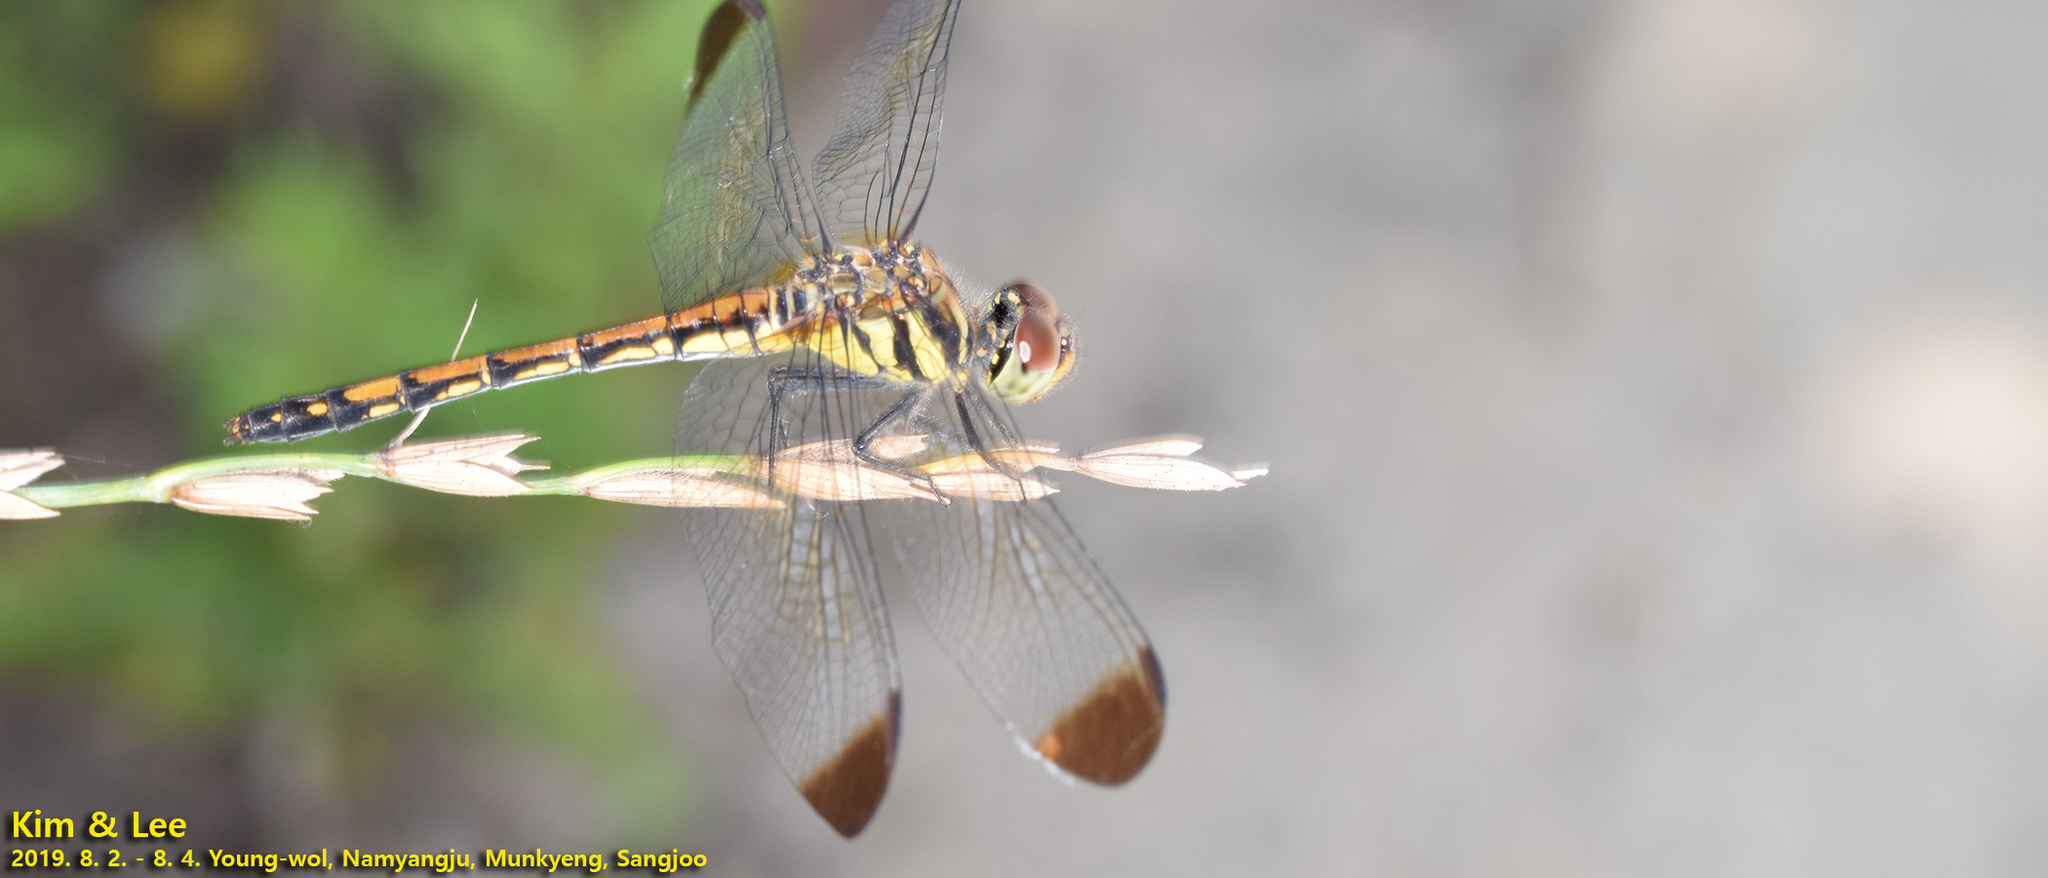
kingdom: Animalia
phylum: Arthropoda
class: Insecta
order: Odonata
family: Libellulidae
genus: Sympetrum
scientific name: Sympetrum infuscatum
